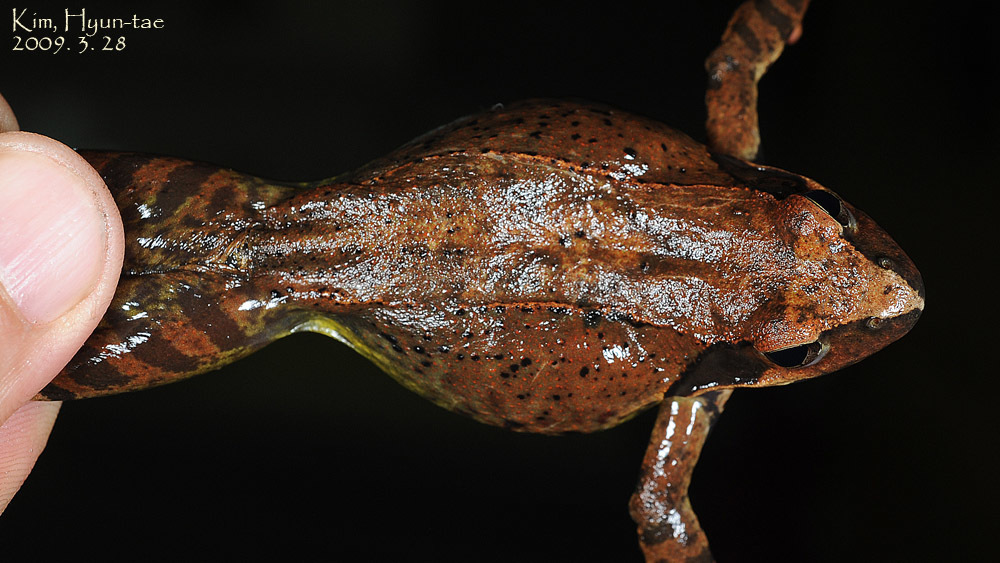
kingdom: Animalia
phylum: Chordata
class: Amphibia
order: Anura
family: Ranidae
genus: Rana
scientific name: Rana uenoi
